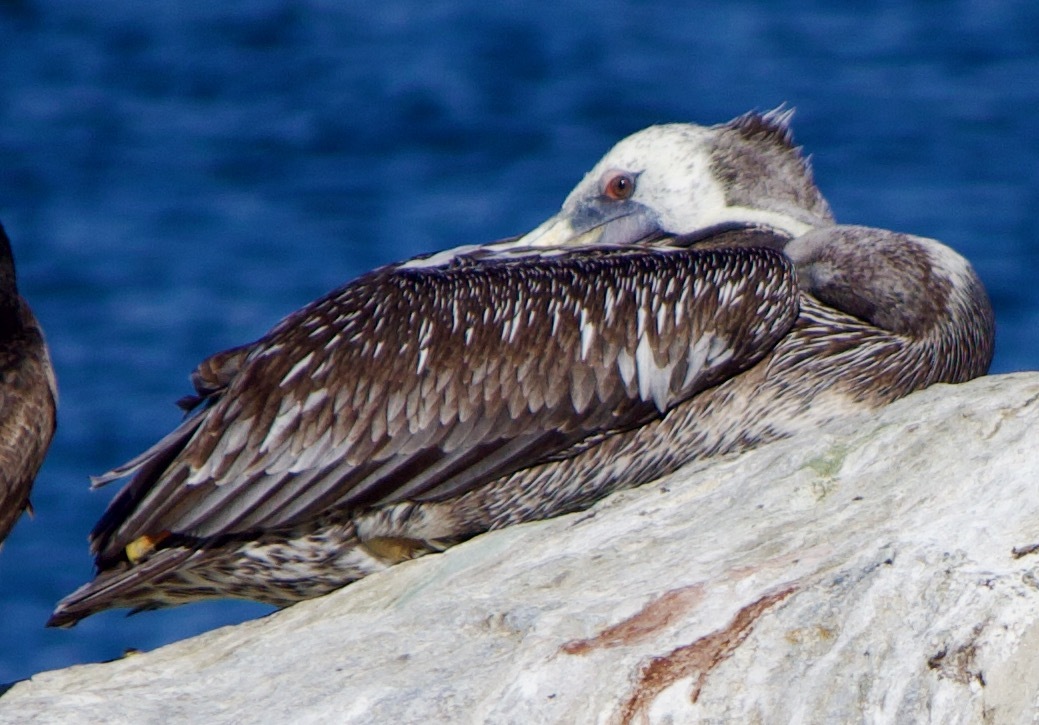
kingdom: Animalia
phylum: Chordata
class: Aves
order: Pelecaniformes
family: Pelecanidae
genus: Pelecanus
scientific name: Pelecanus thagus
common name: Peruvian pelican
